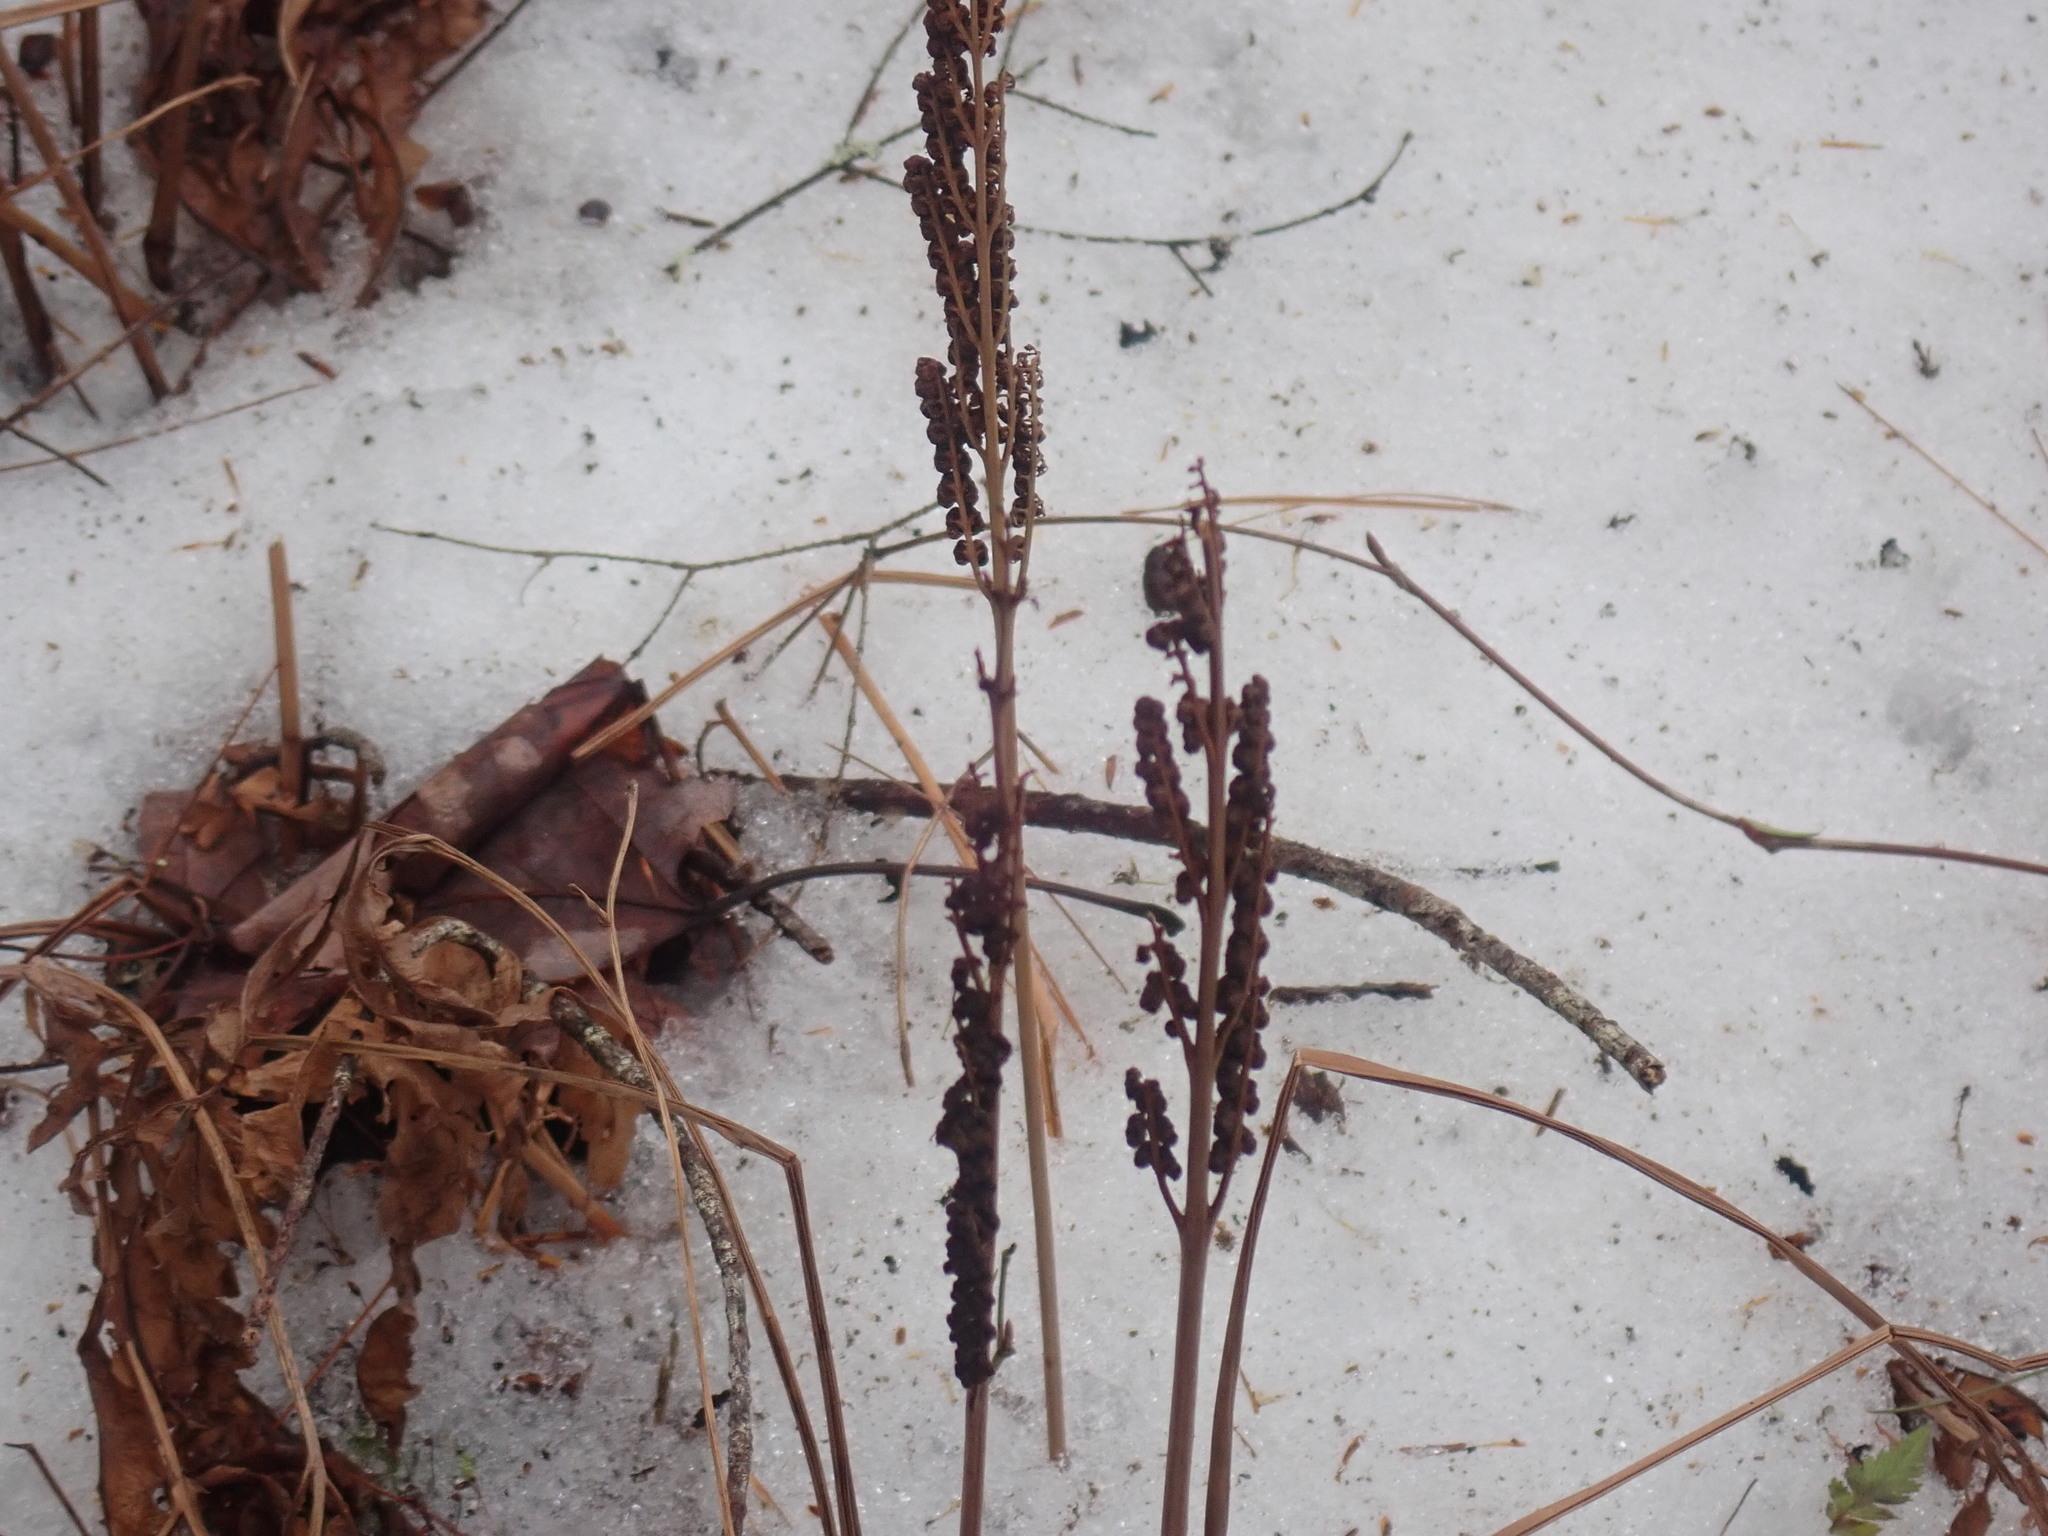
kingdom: Plantae
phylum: Tracheophyta
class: Polypodiopsida
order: Polypodiales
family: Onocleaceae
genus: Onoclea
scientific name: Onoclea sensibilis
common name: Sensitive fern
